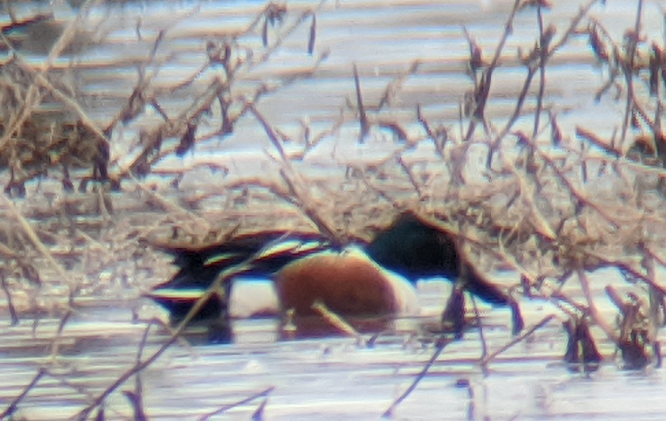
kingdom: Animalia
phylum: Chordata
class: Aves
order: Anseriformes
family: Anatidae
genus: Spatula
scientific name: Spatula clypeata
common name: Northern shoveler
